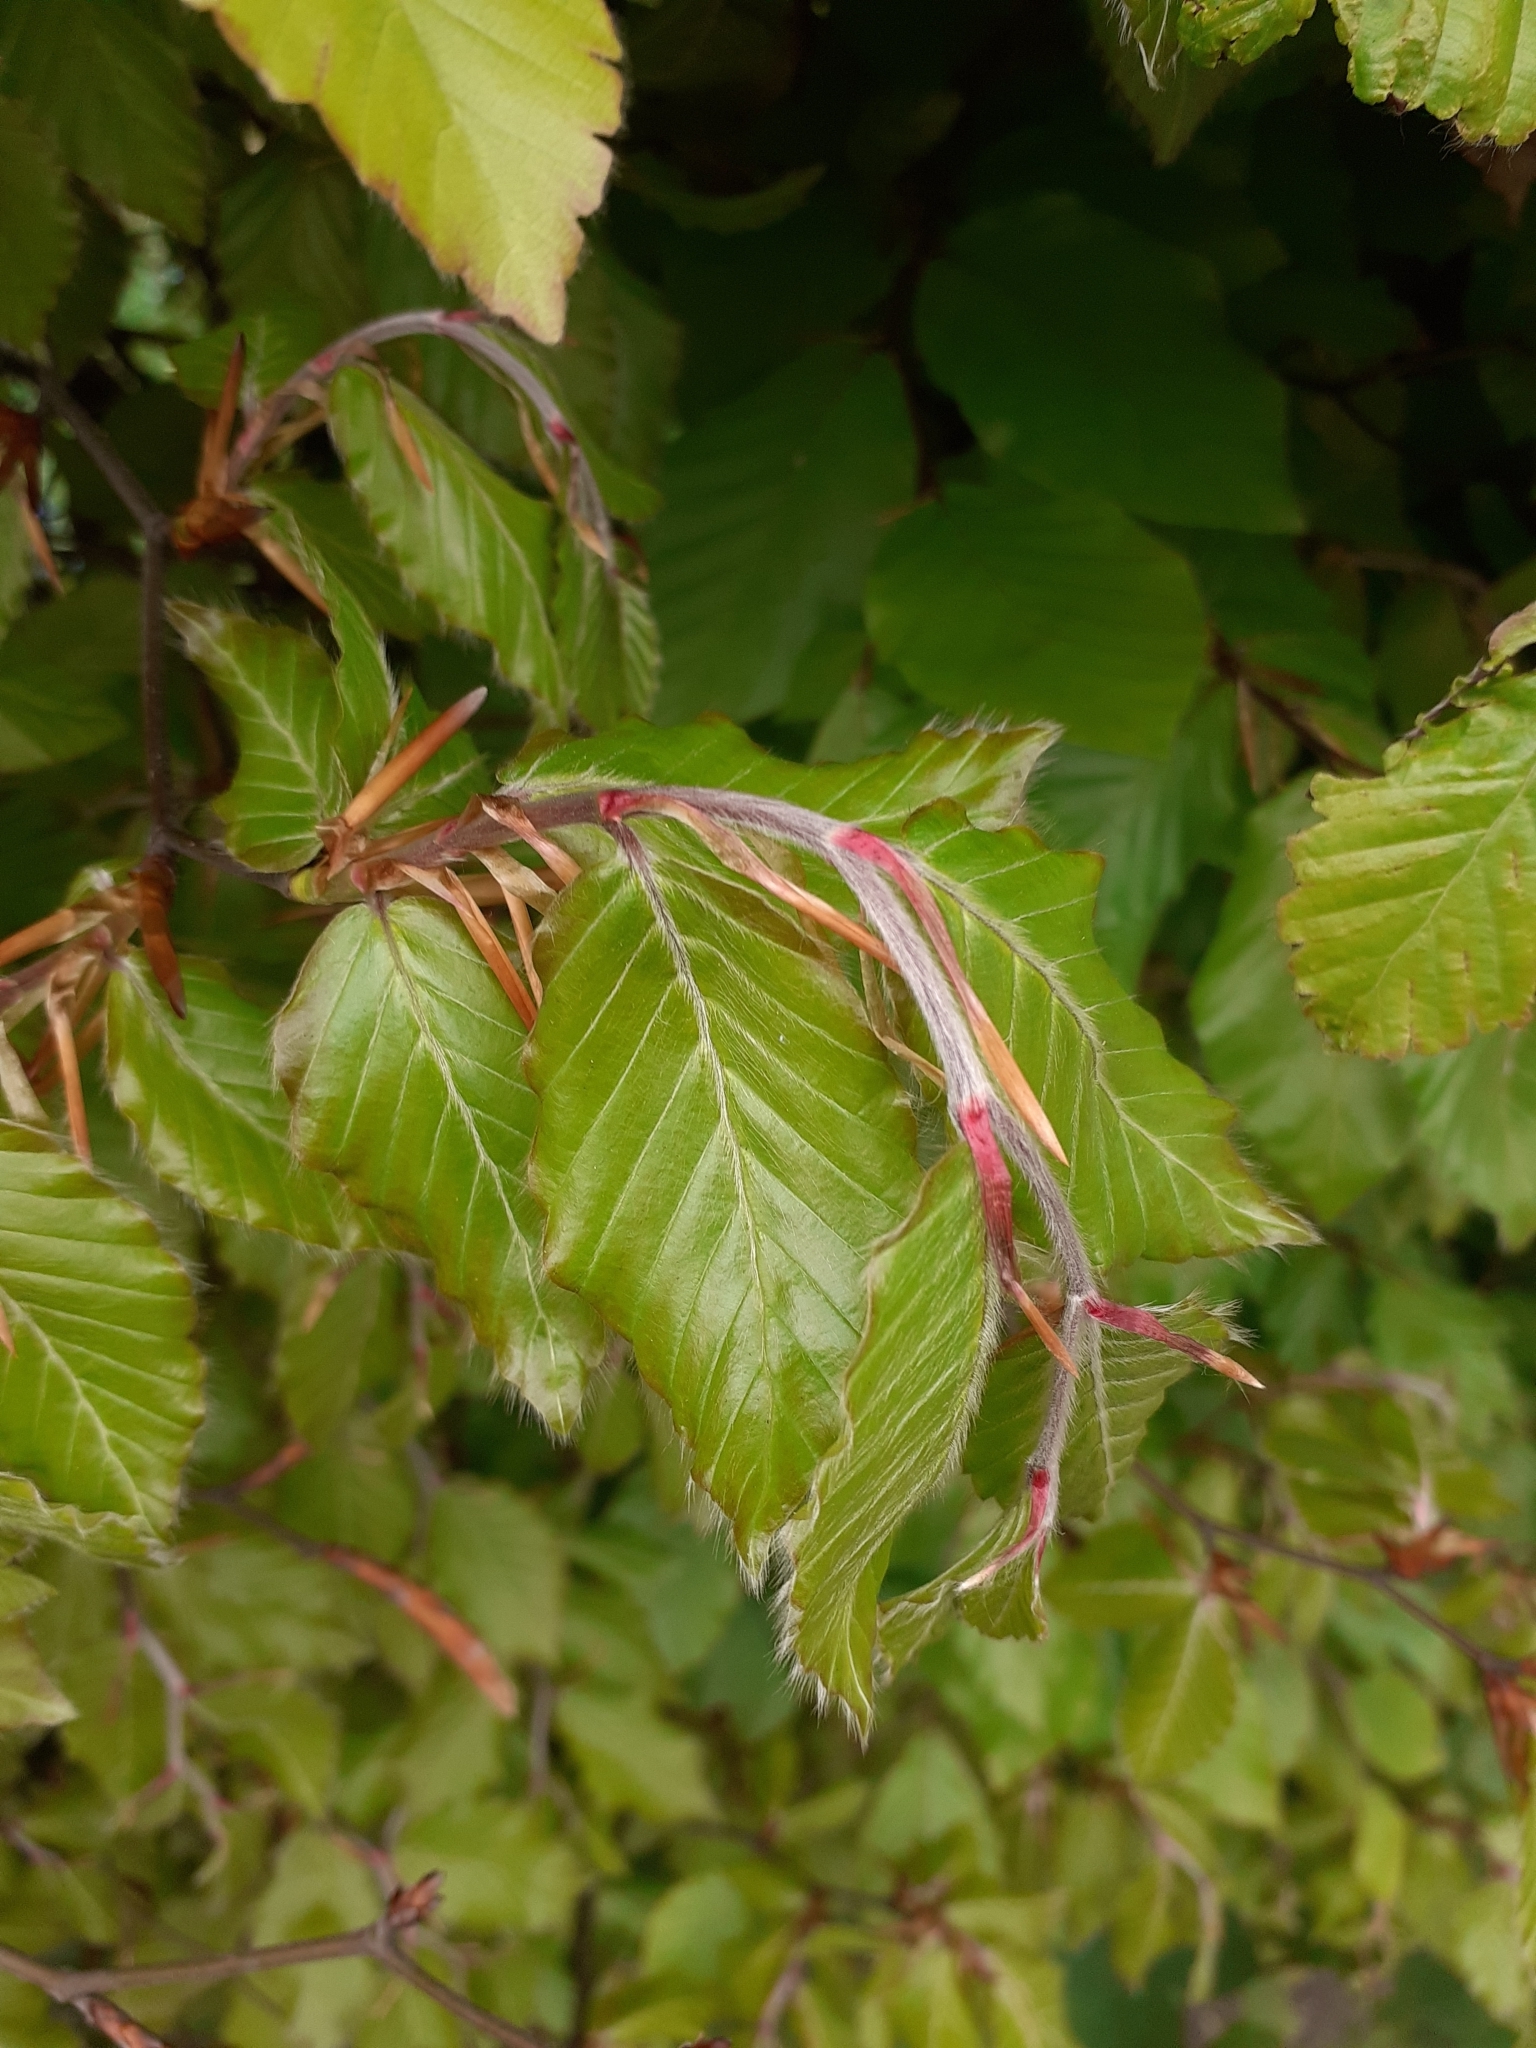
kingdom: Plantae
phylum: Tracheophyta
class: Magnoliopsida
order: Fagales
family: Fagaceae
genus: Fagus
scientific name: Fagus sylvatica
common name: Beech
